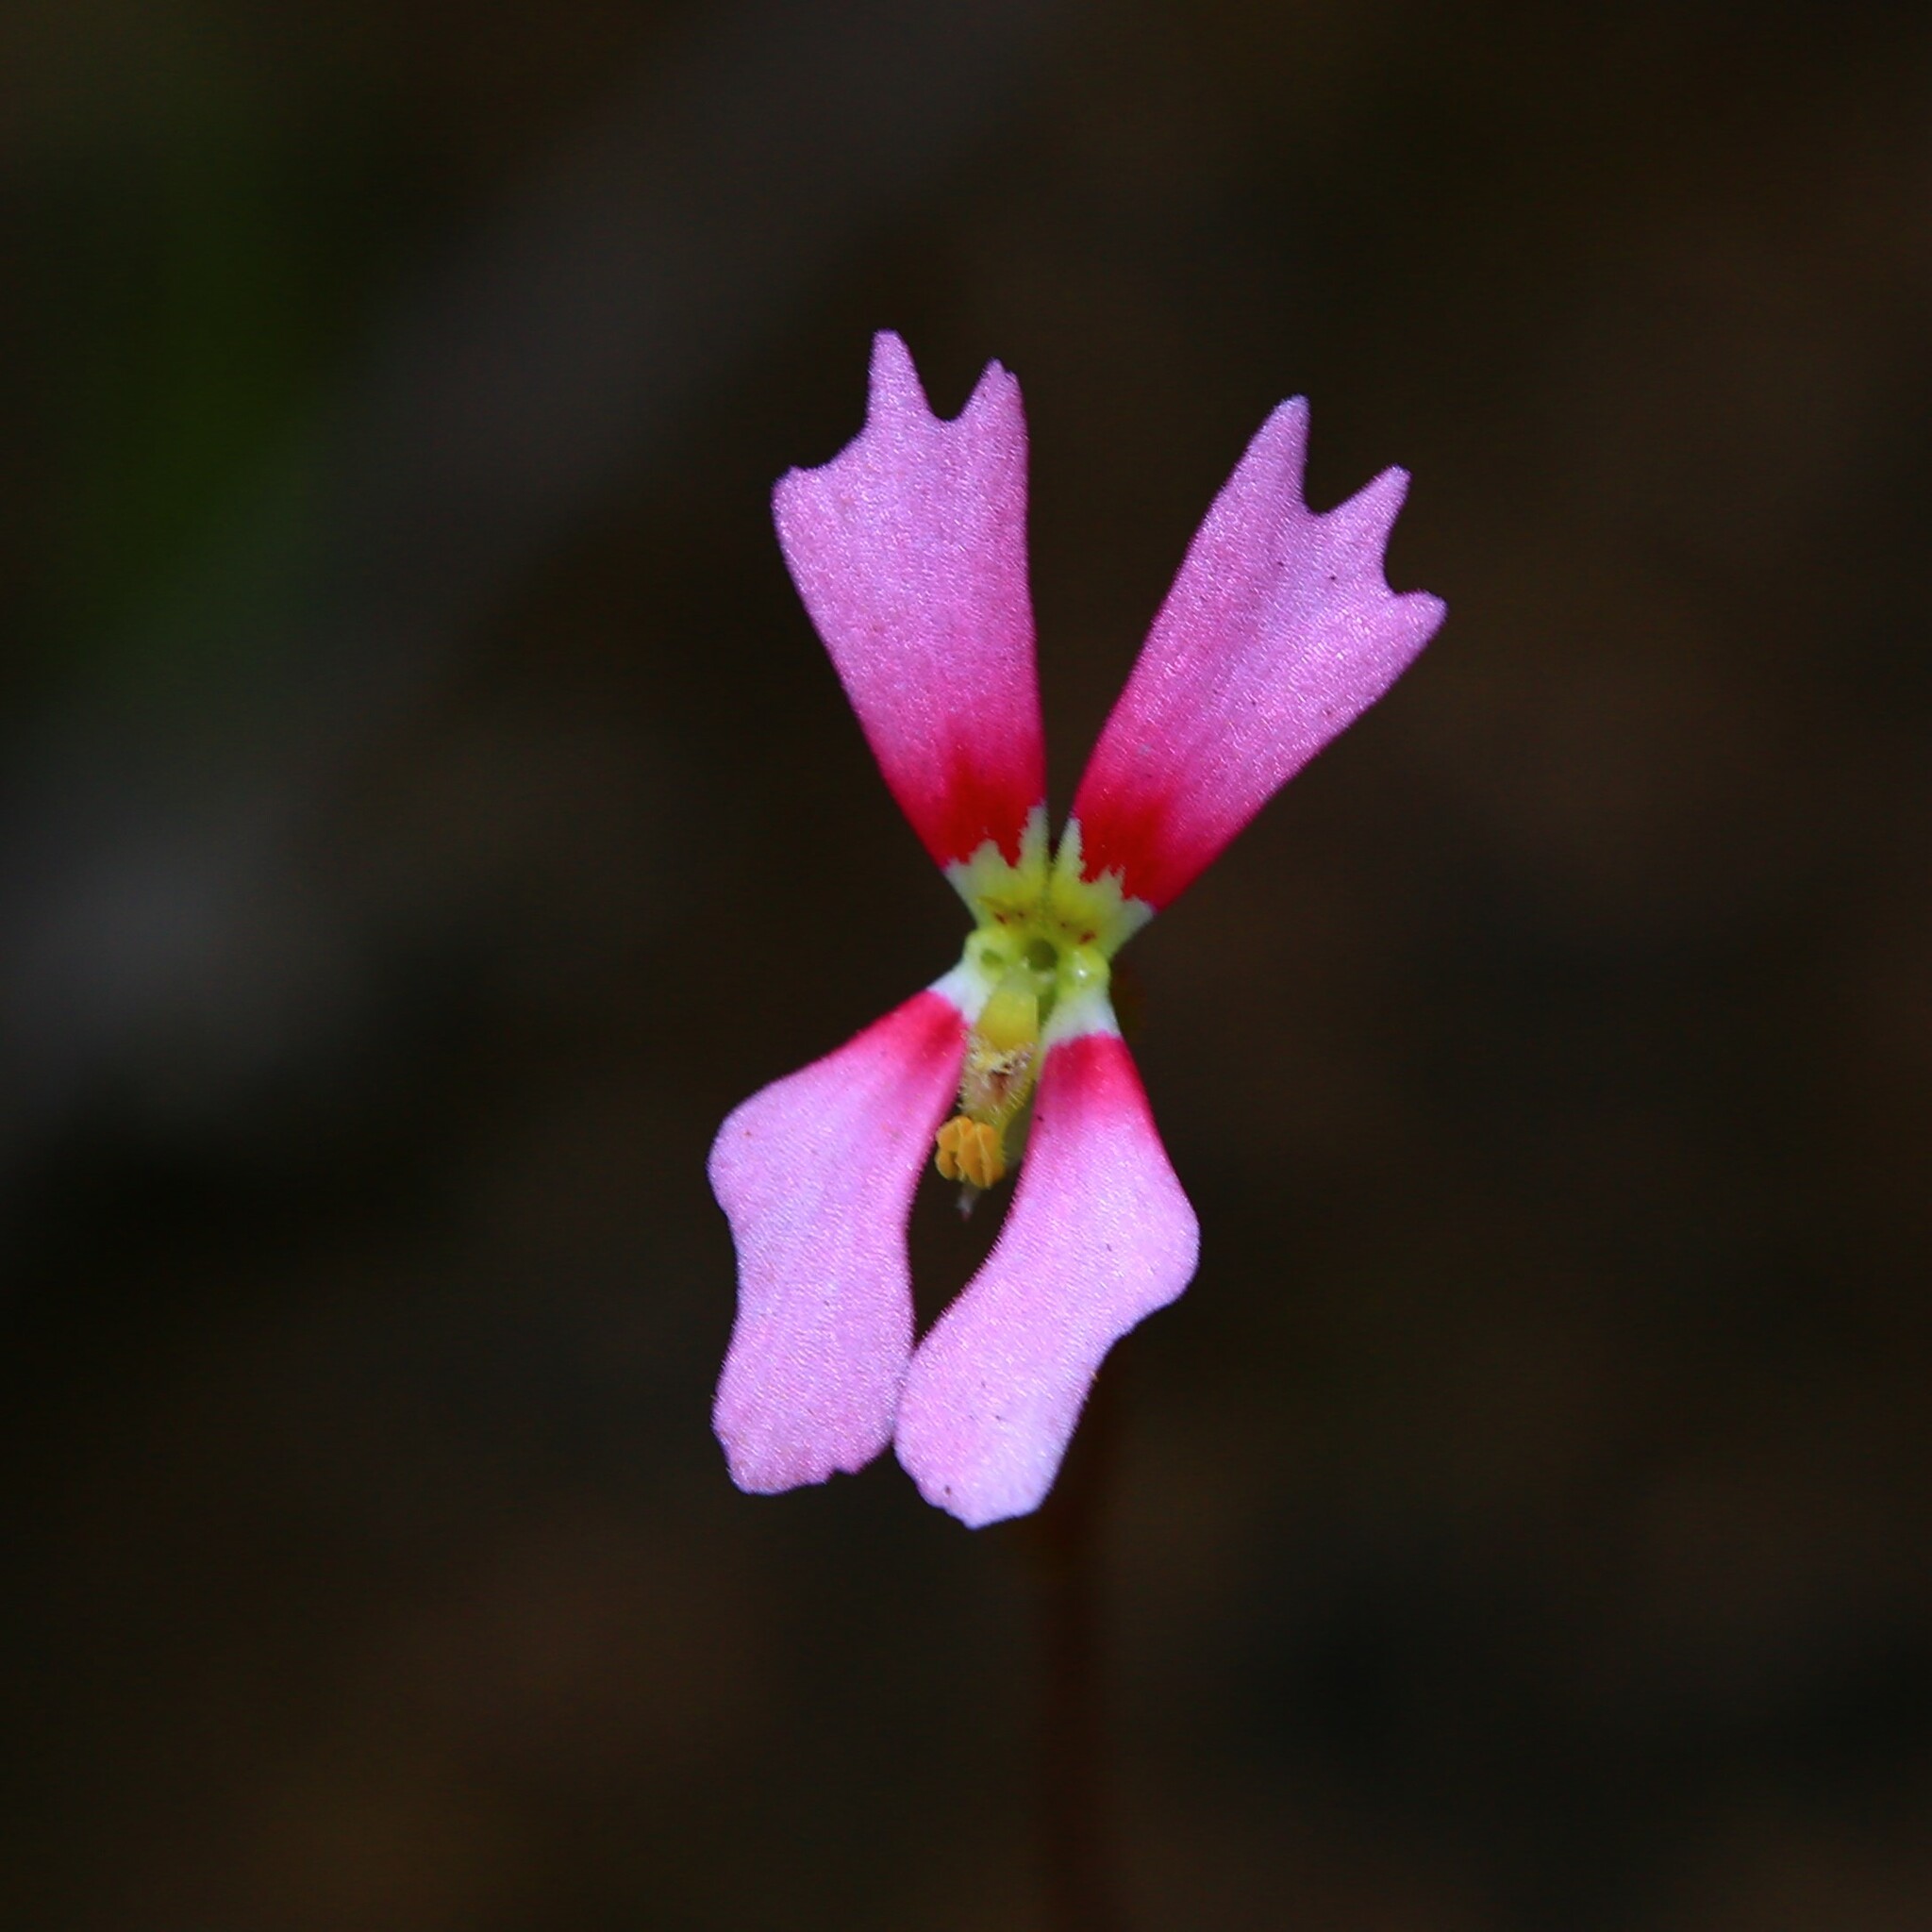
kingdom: Plantae
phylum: Tracheophyta
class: Magnoliopsida
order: Asterales
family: Stylidiaceae
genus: Stylidium
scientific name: Stylidium ecorne
